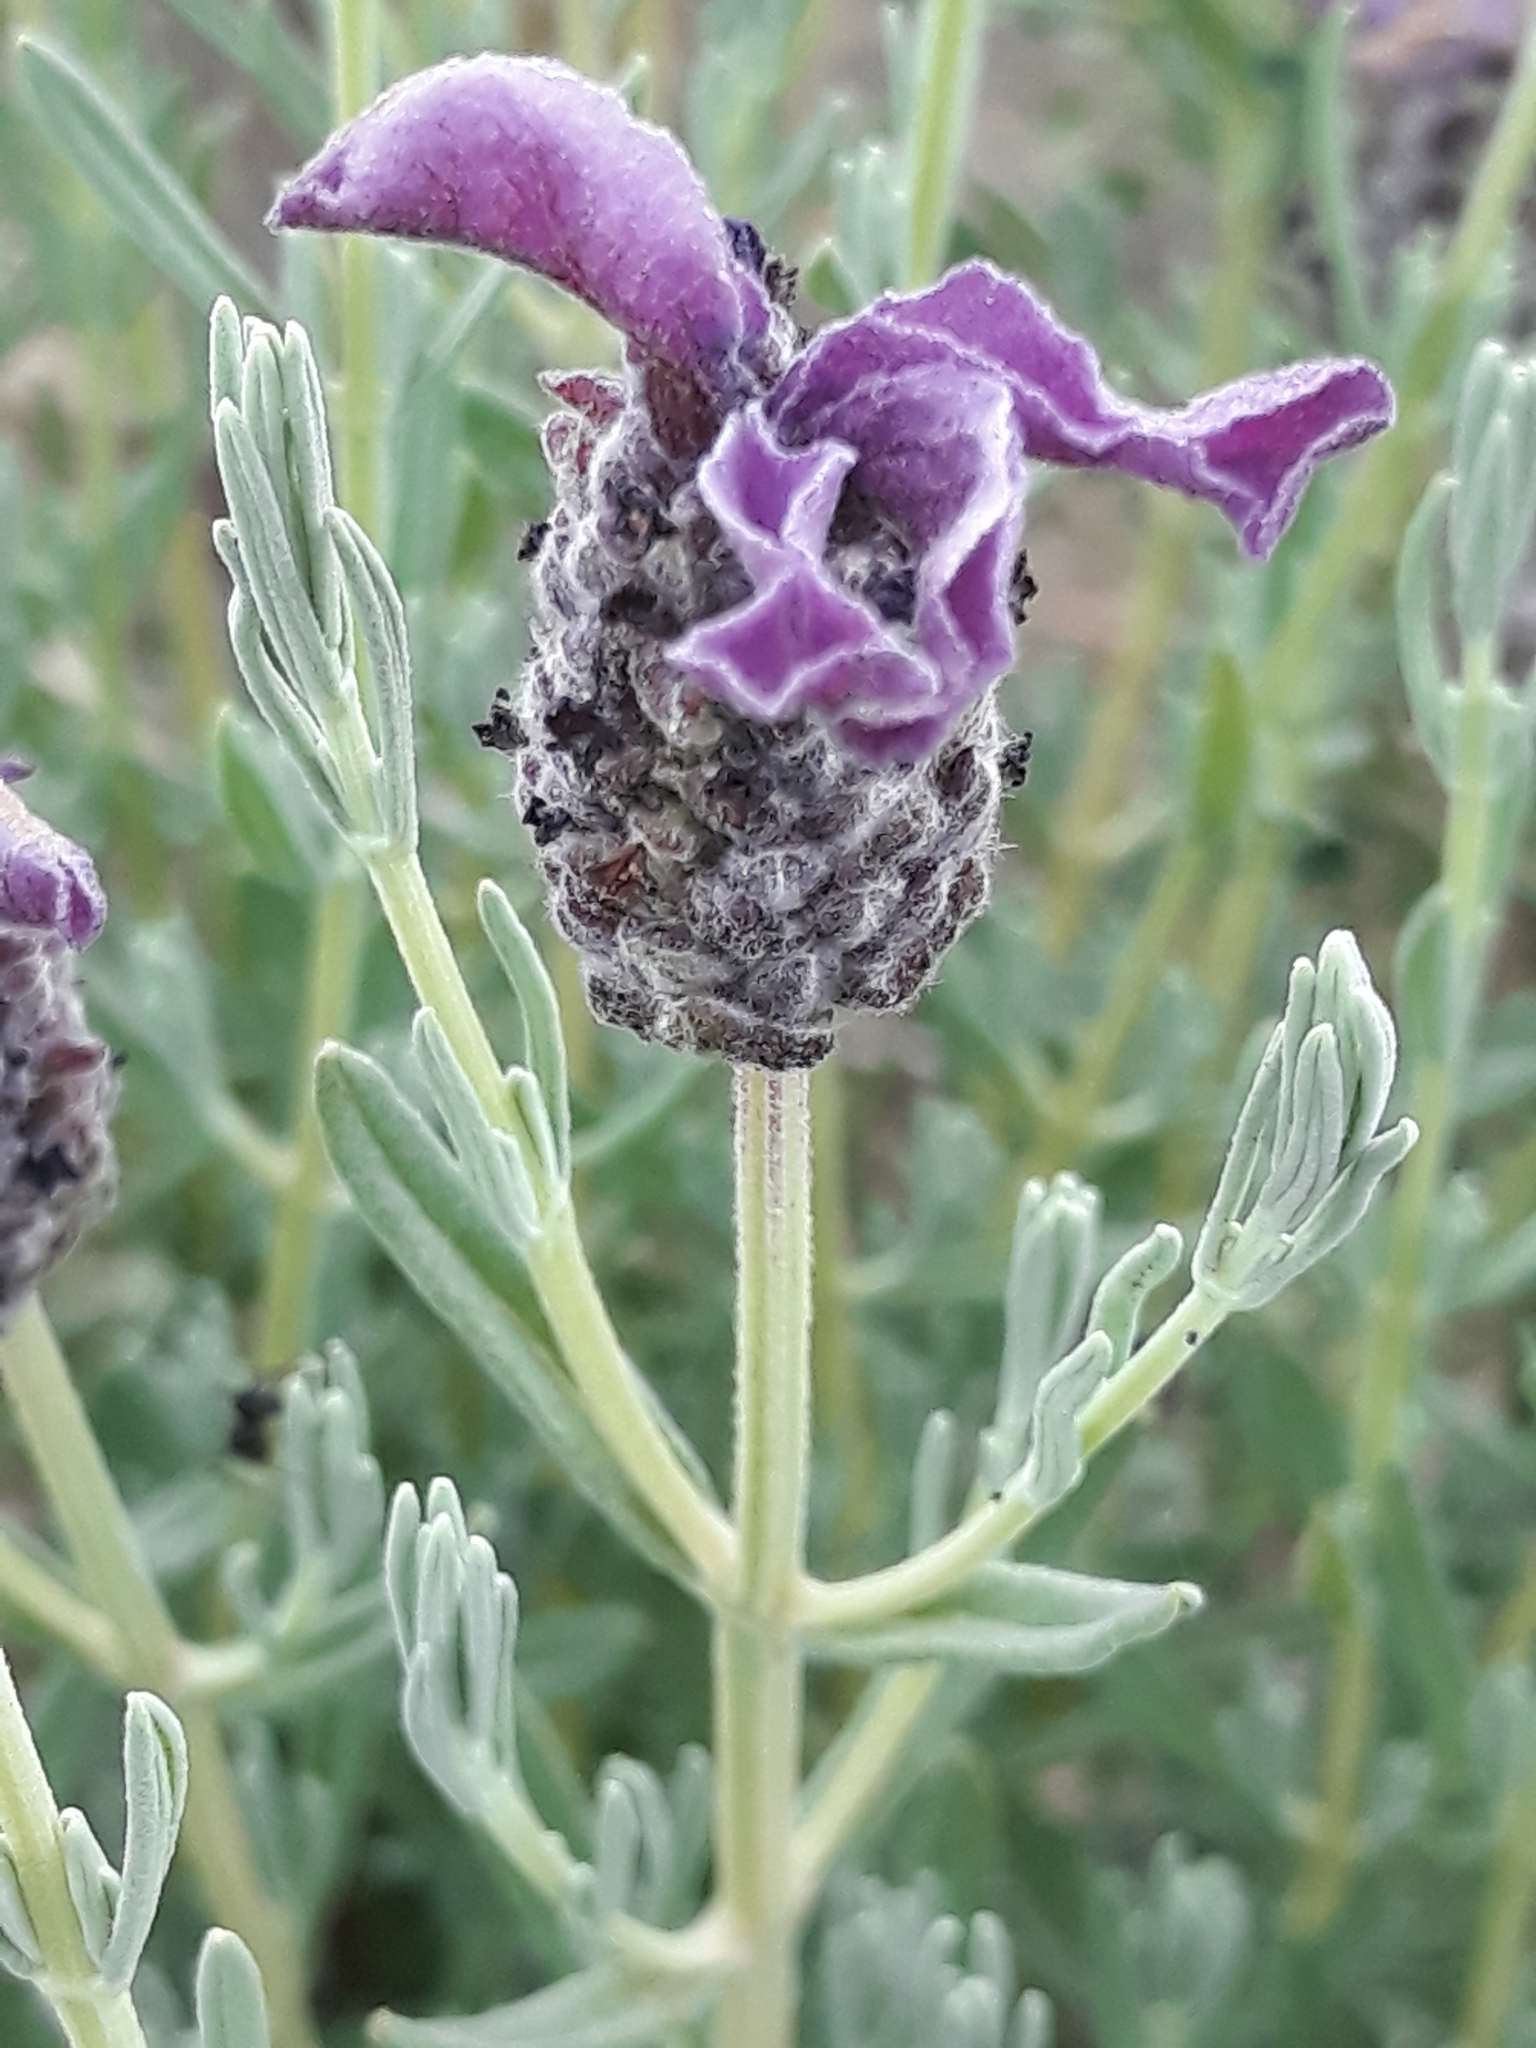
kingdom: Plantae
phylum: Tracheophyta
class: Magnoliopsida
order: Lamiales
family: Lamiaceae
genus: Lavandula
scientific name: Lavandula stoechas
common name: French lavender
